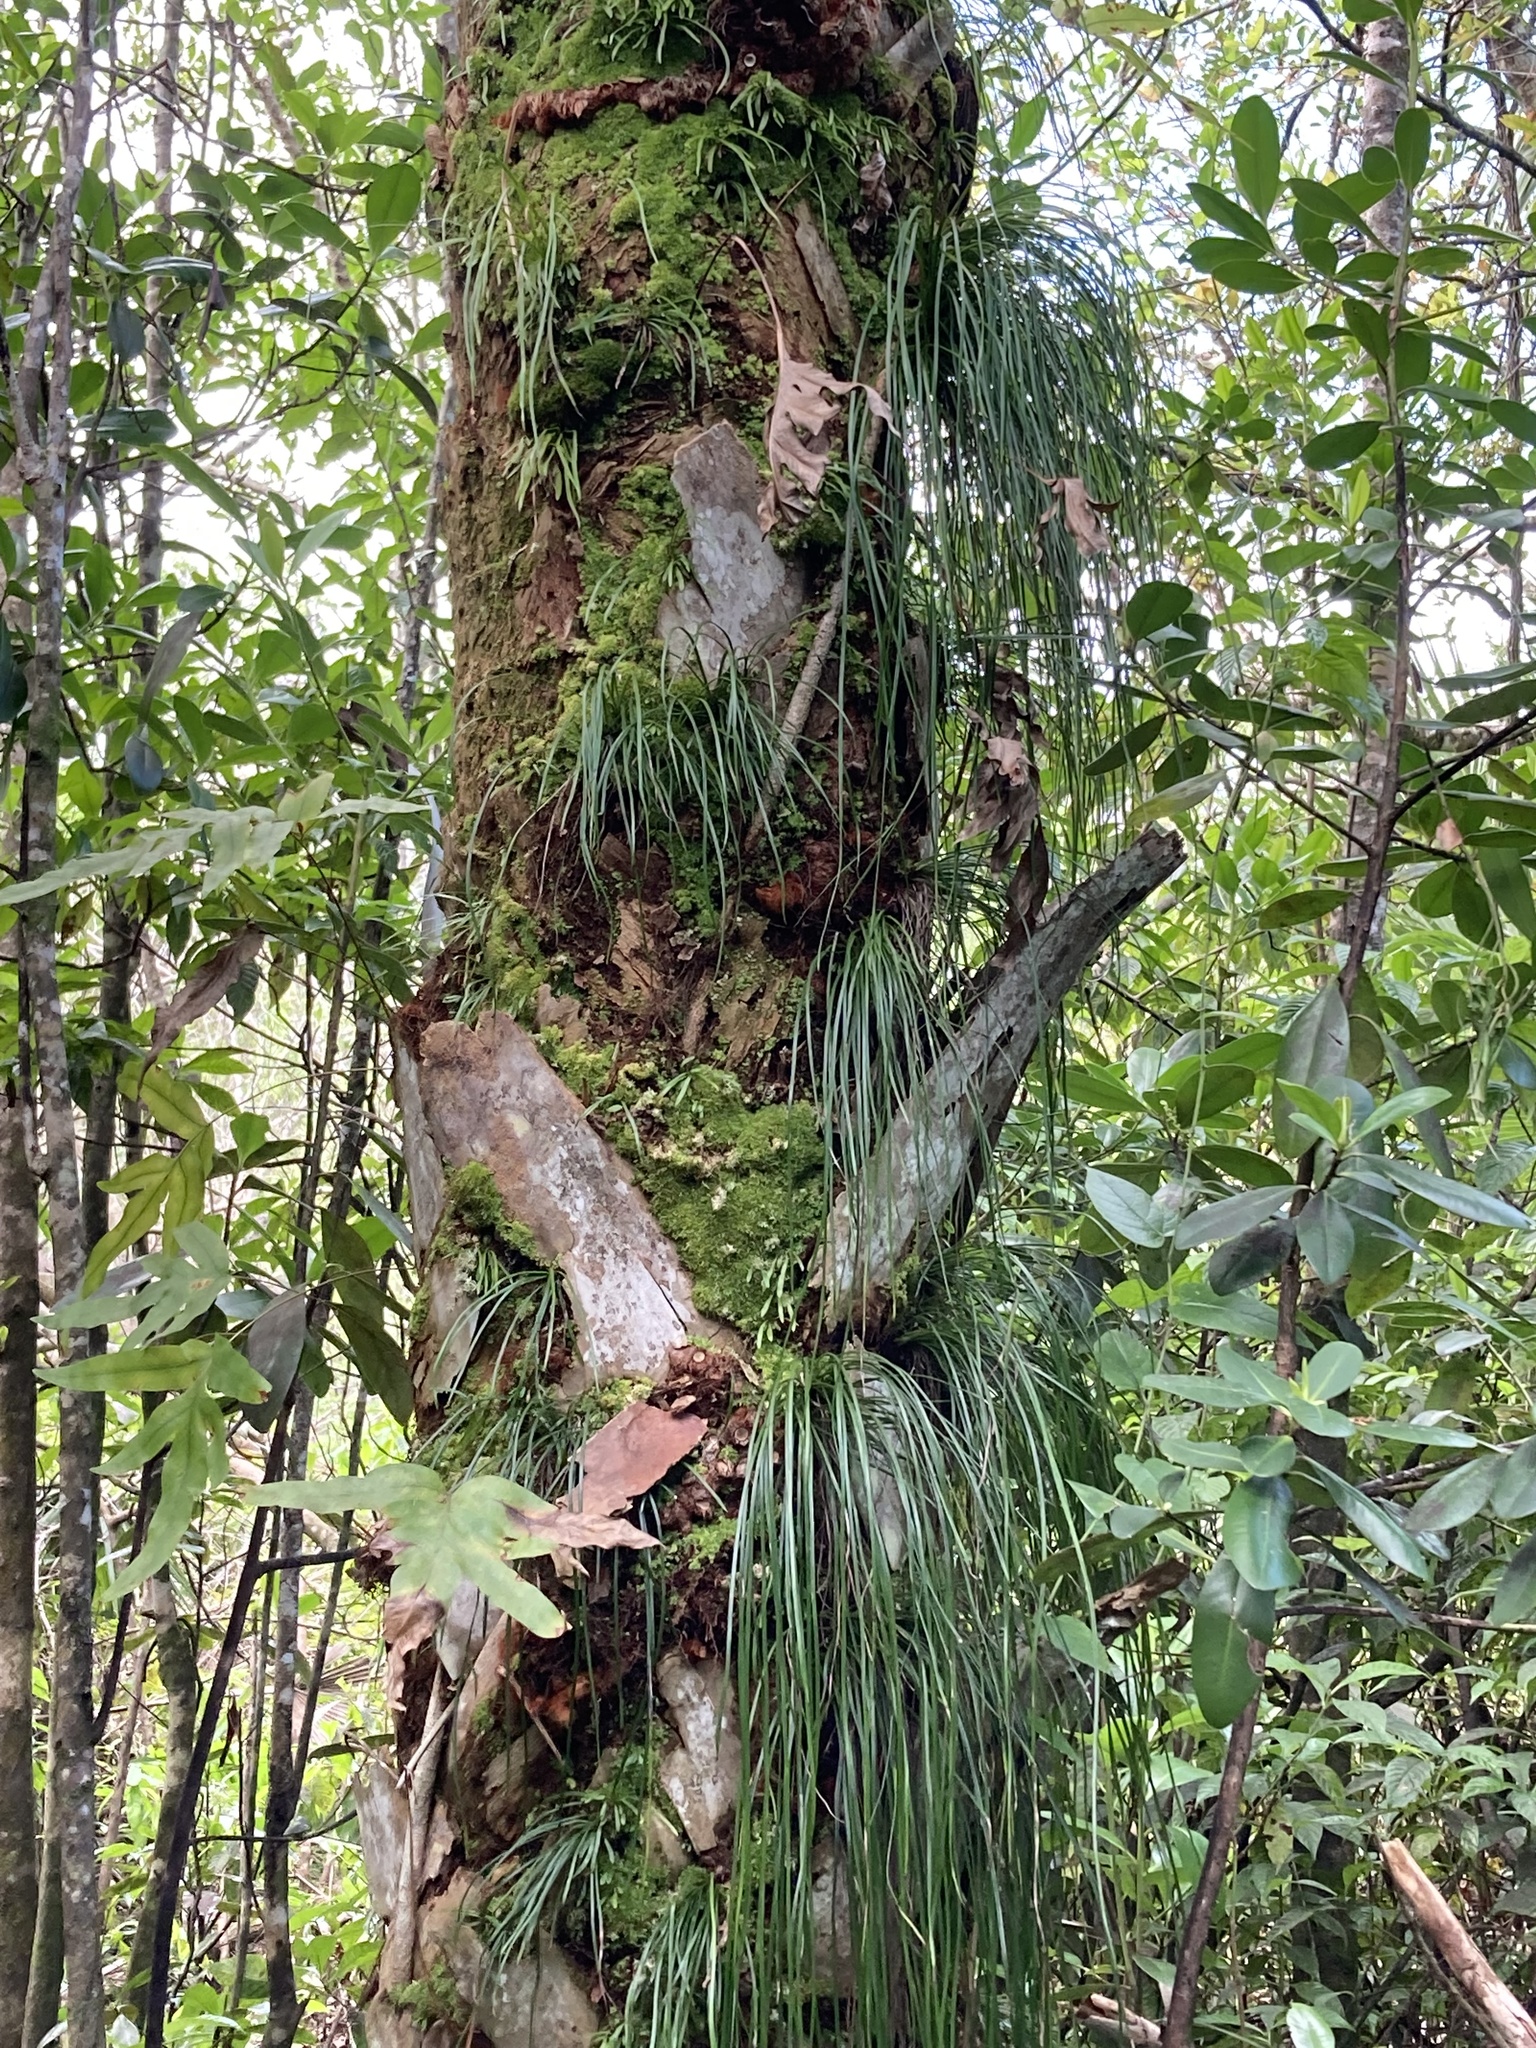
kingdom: Plantae
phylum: Tracheophyta
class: Polypodiopsida
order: Polypodiales
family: Pteridaceae
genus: Vittaria
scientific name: Vittaria lineata
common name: Shoestring fern
